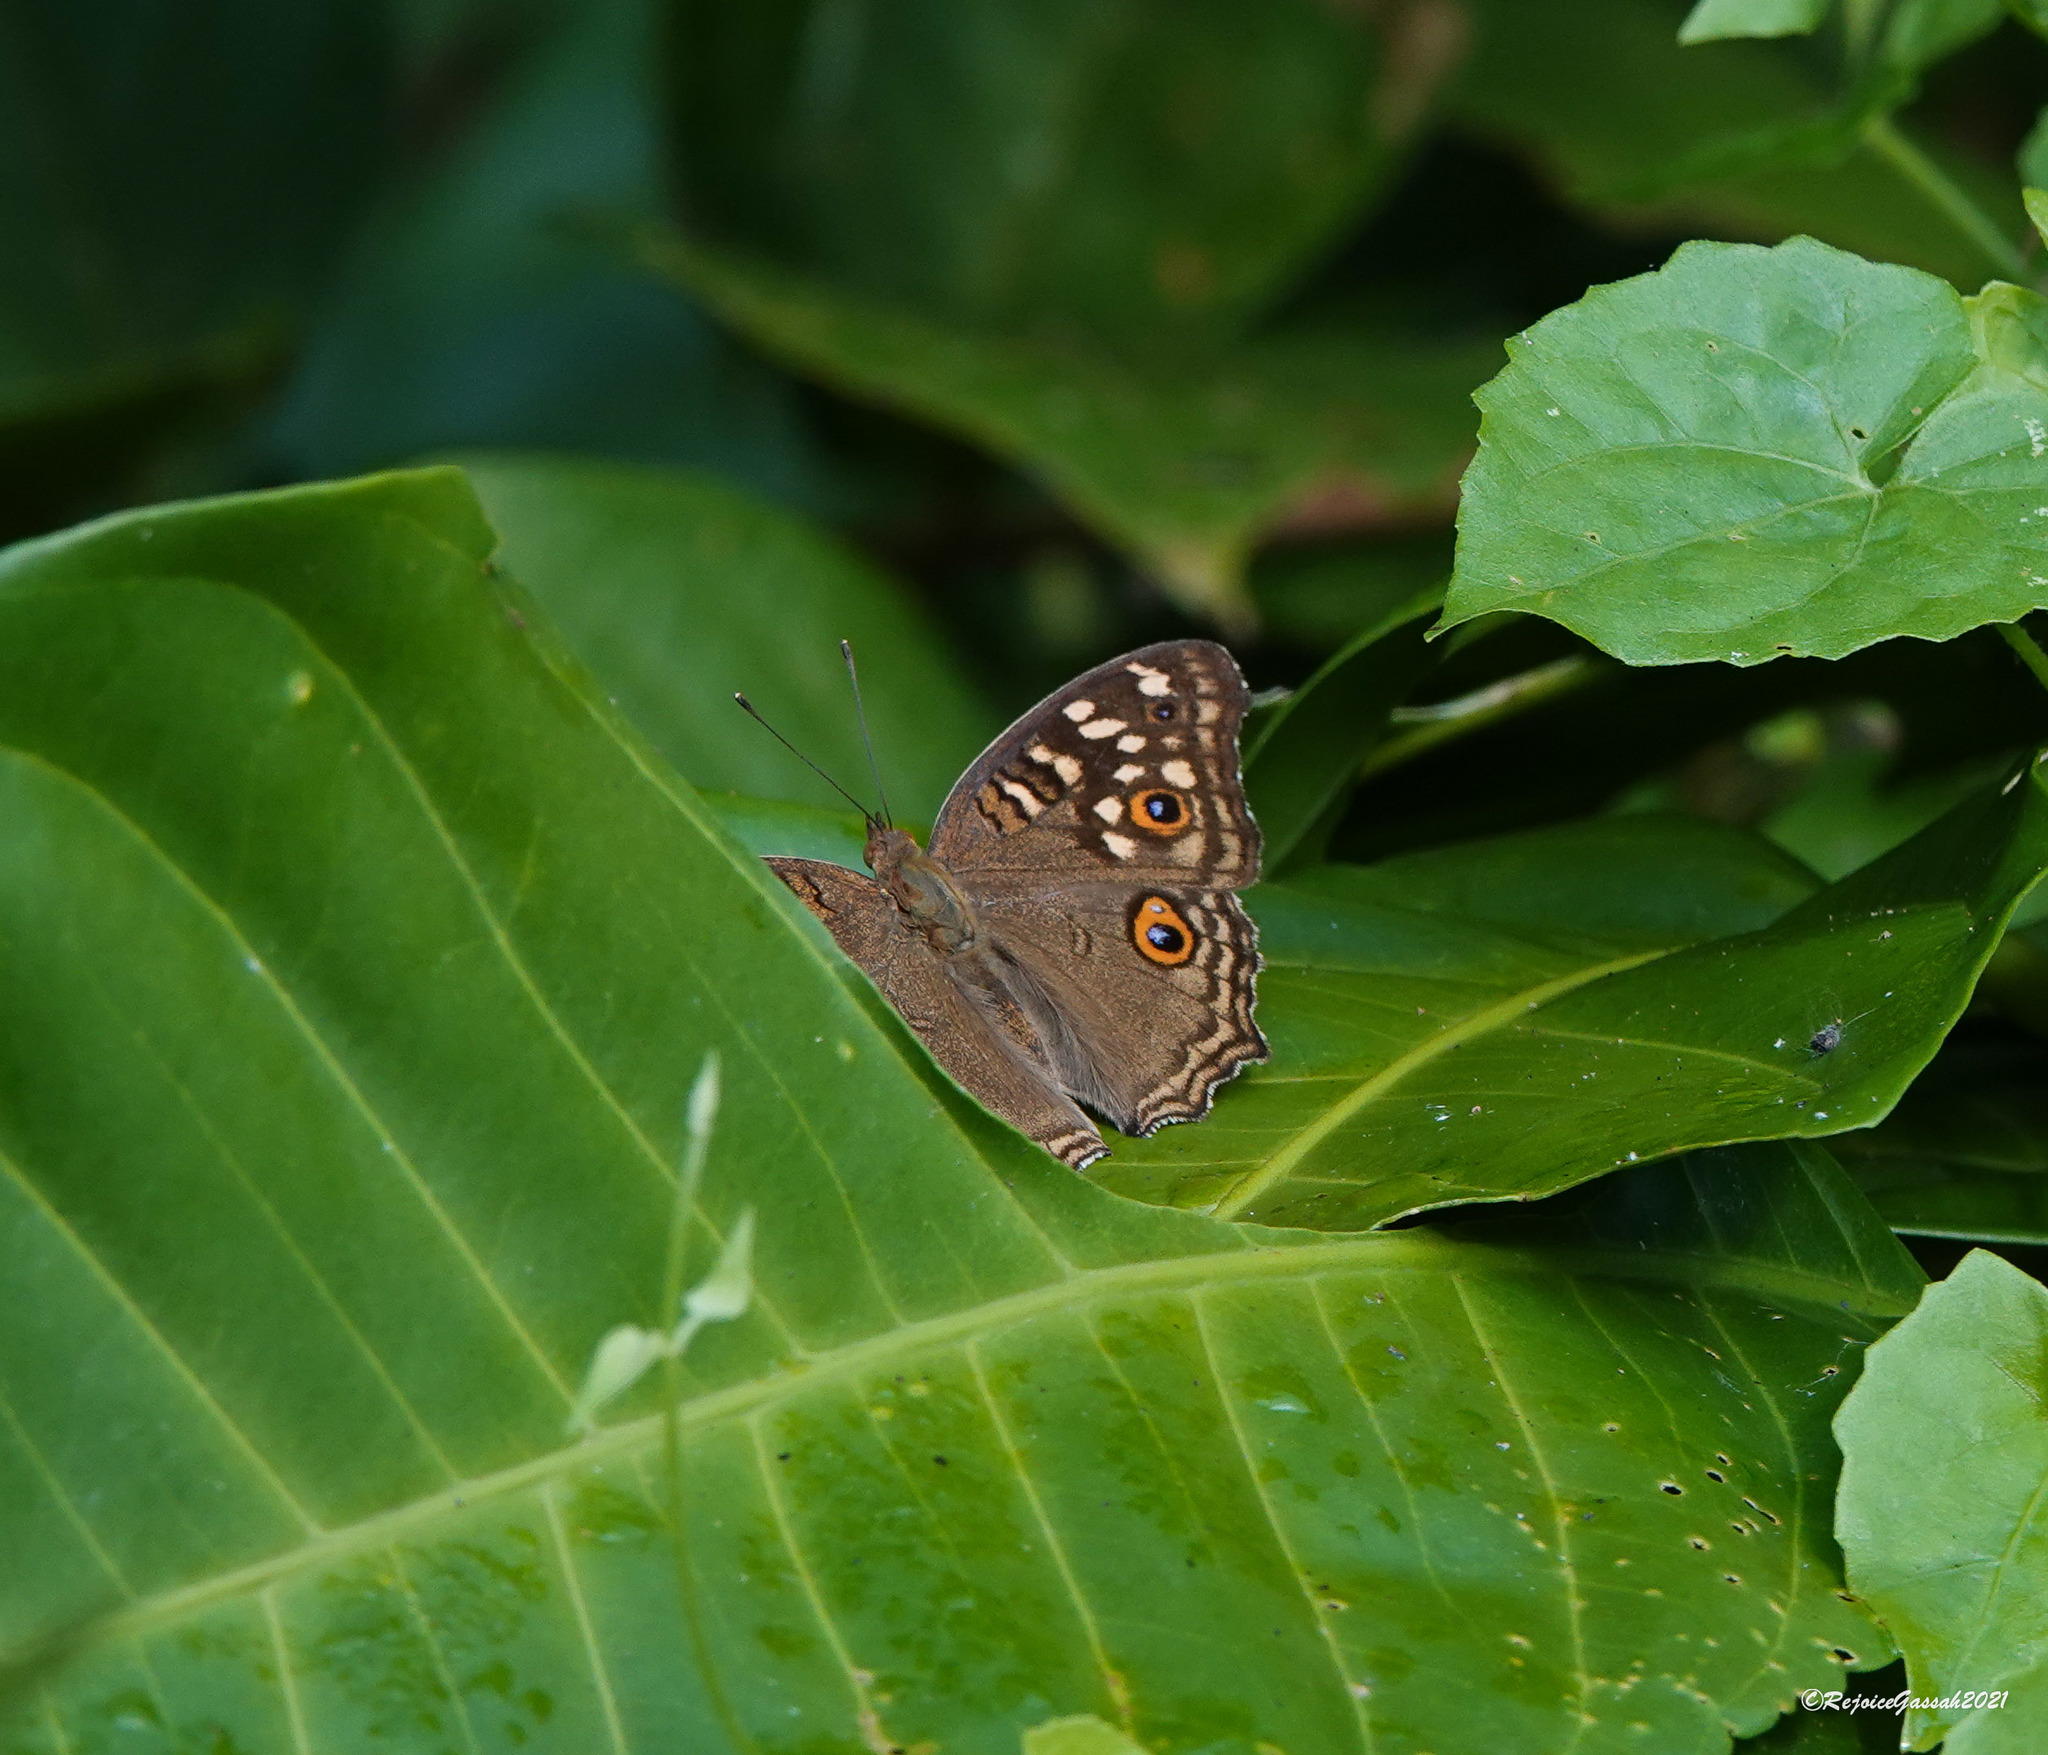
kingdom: Animalia
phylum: Arthropoda
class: Insecta
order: Lepidoptera
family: Nymphalidae
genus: Junonia
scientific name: Junonia lemonias
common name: Lemon pansy
